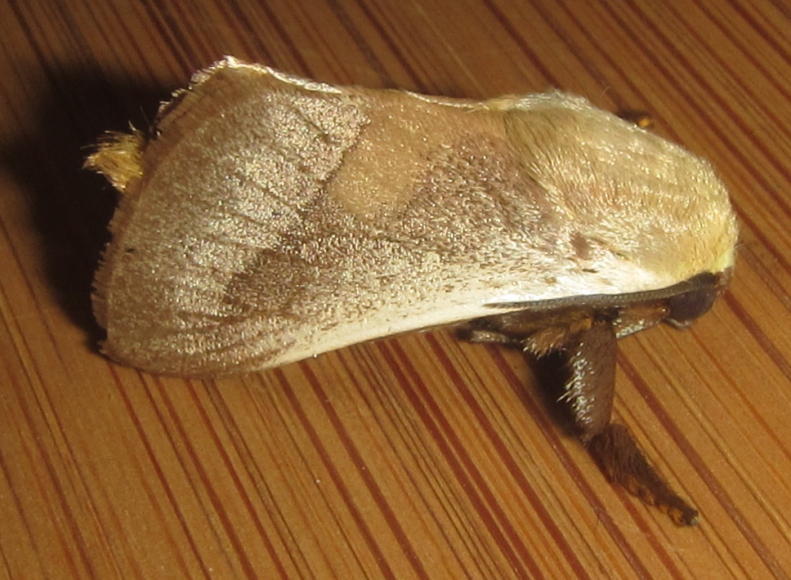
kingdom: Animalia
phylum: Arthropoda
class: Insecta
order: Lepidoptera
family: Limacodidae
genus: Latoia
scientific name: Latoia intermissa
